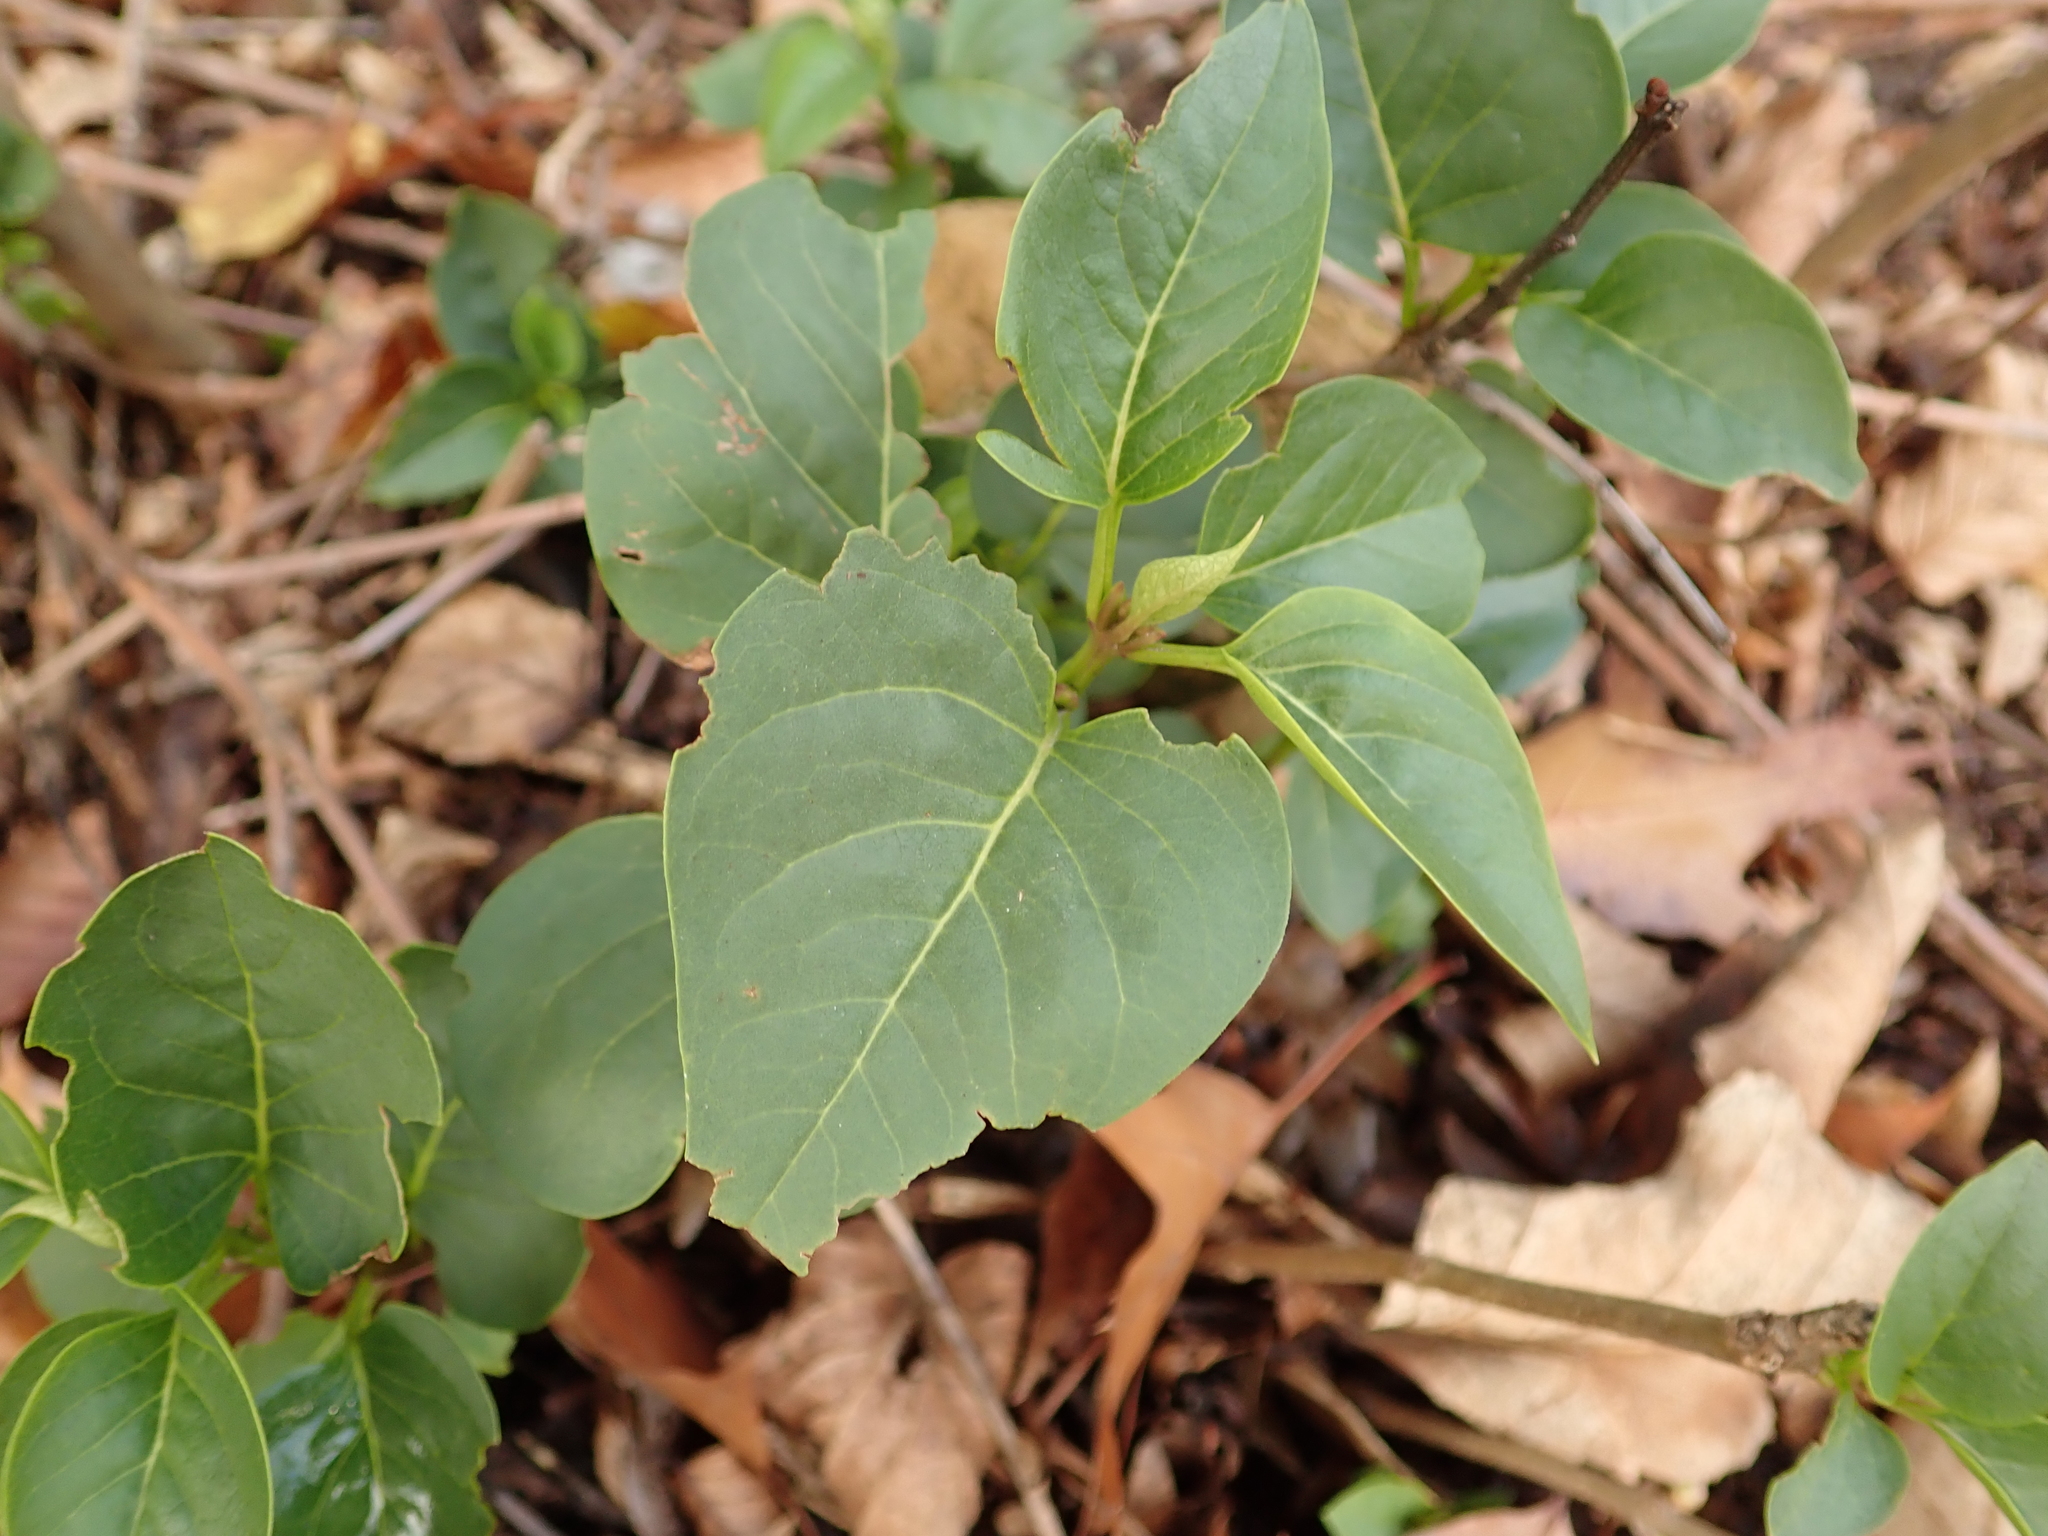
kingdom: Plantae
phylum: Tracheophyta
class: Magnoliopsida
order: Lamiales
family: Oleaceae
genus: Syringa
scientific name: Syringa vulgaris
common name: Common lilac
